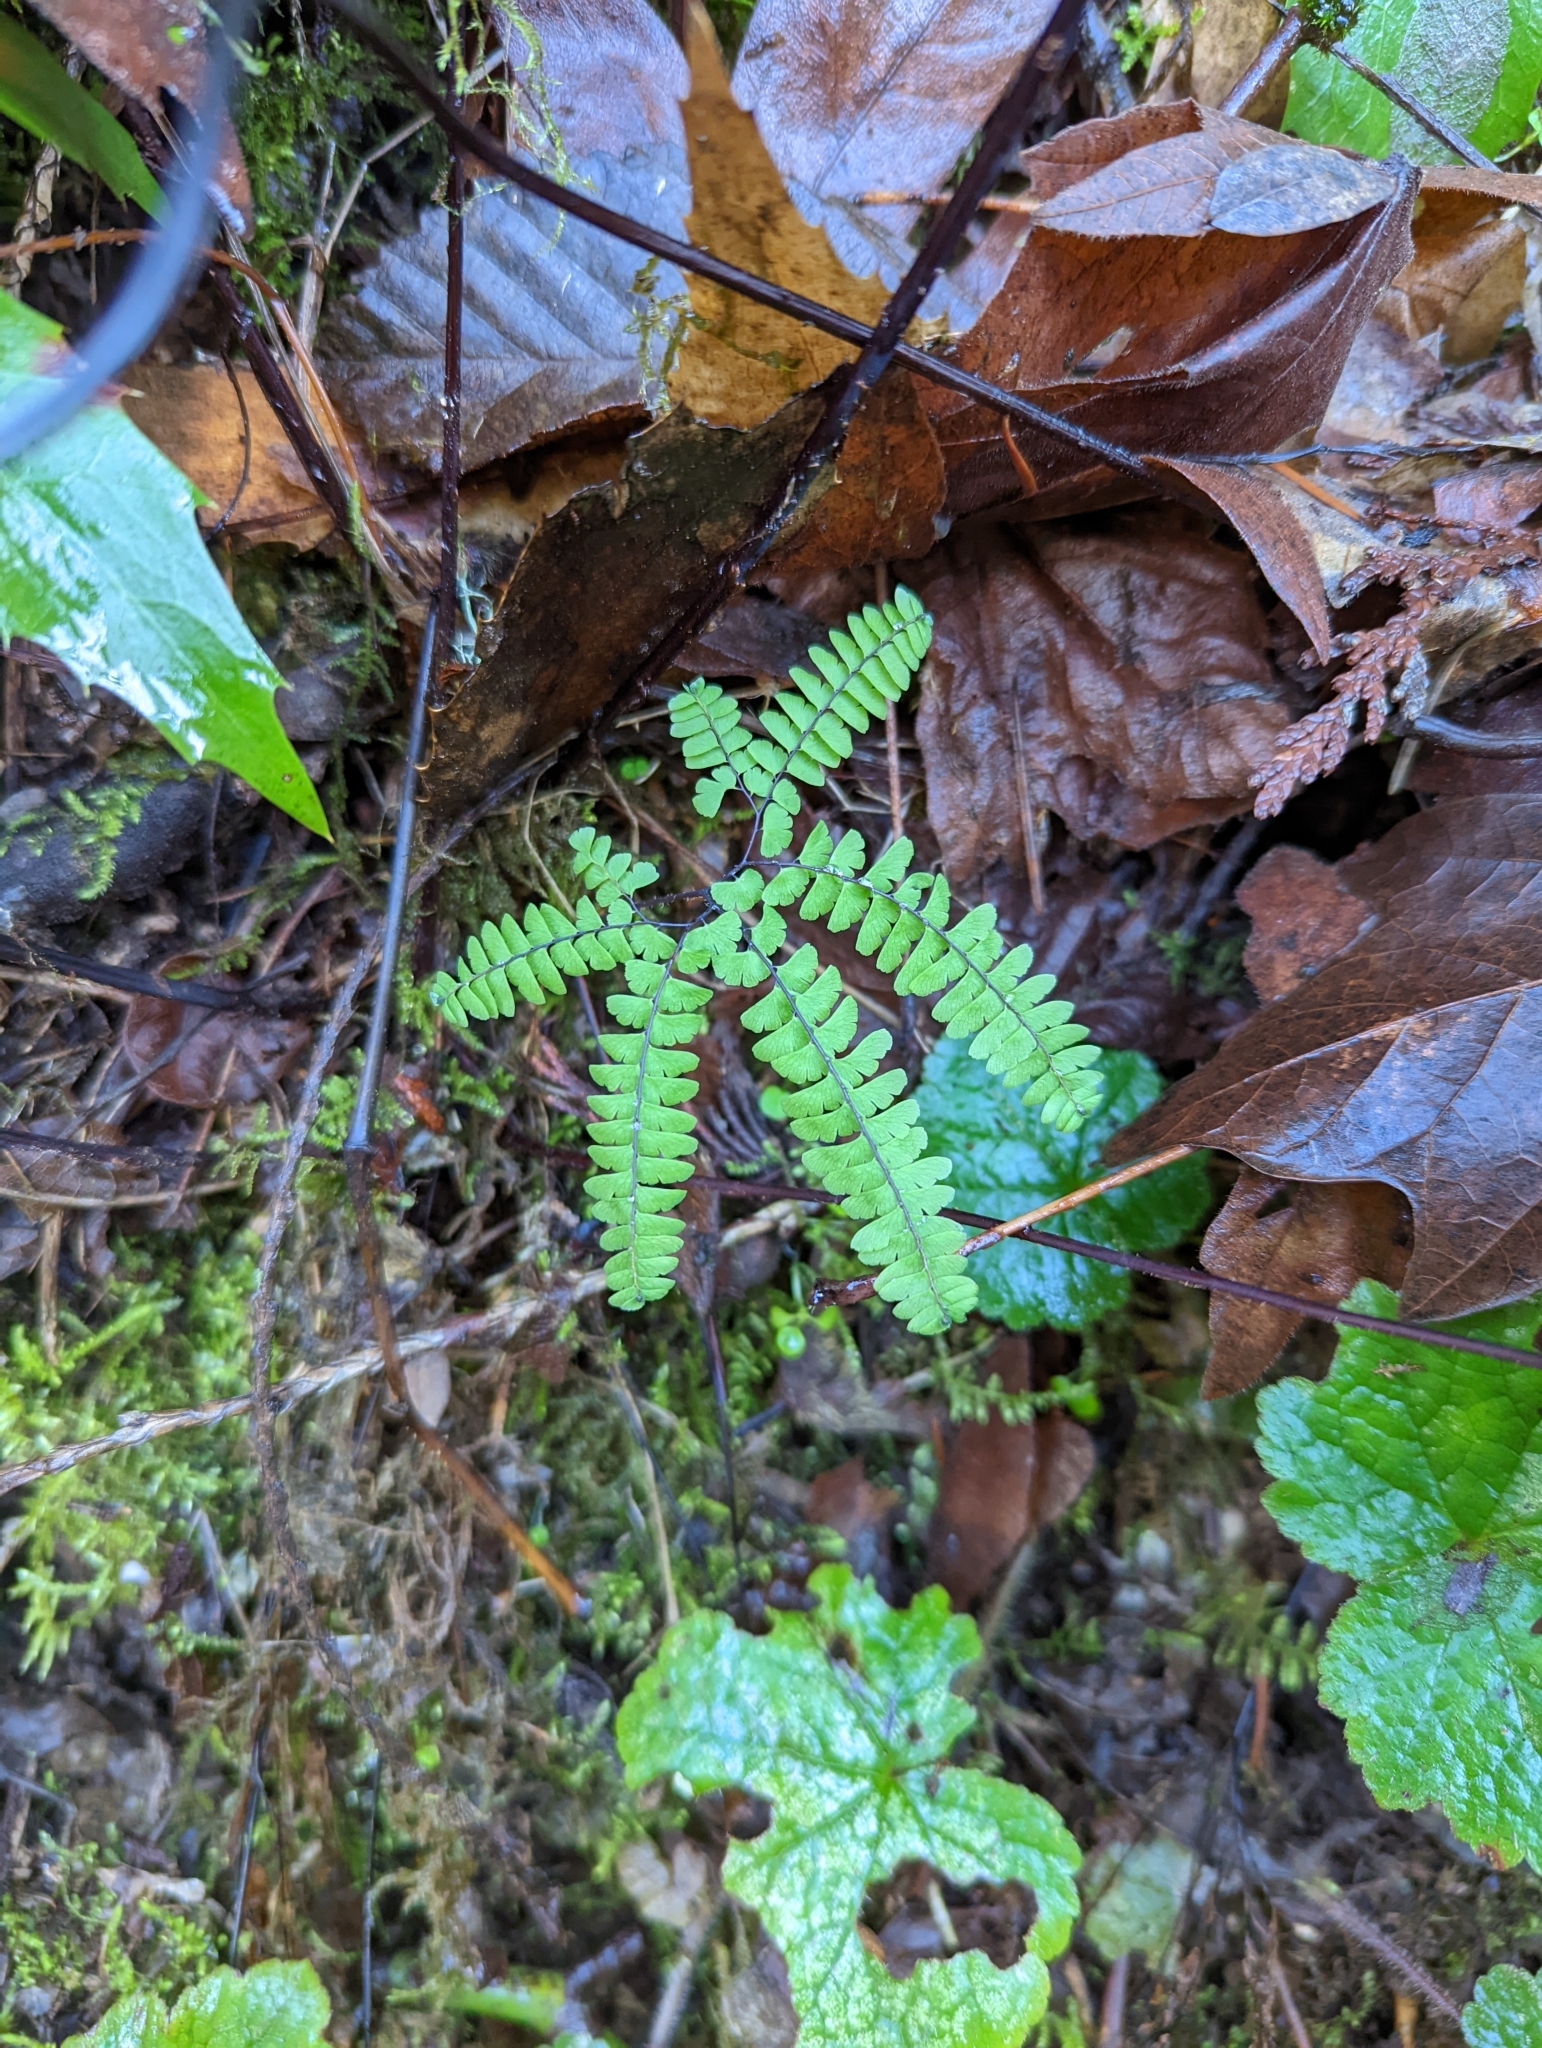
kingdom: Plantae
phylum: Tracheophyta
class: Polypodiopsida
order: Polypodiales
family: Pteridaceae
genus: Adiantum
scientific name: Adiantum aleuticum
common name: Aleutian maidenhair fern
